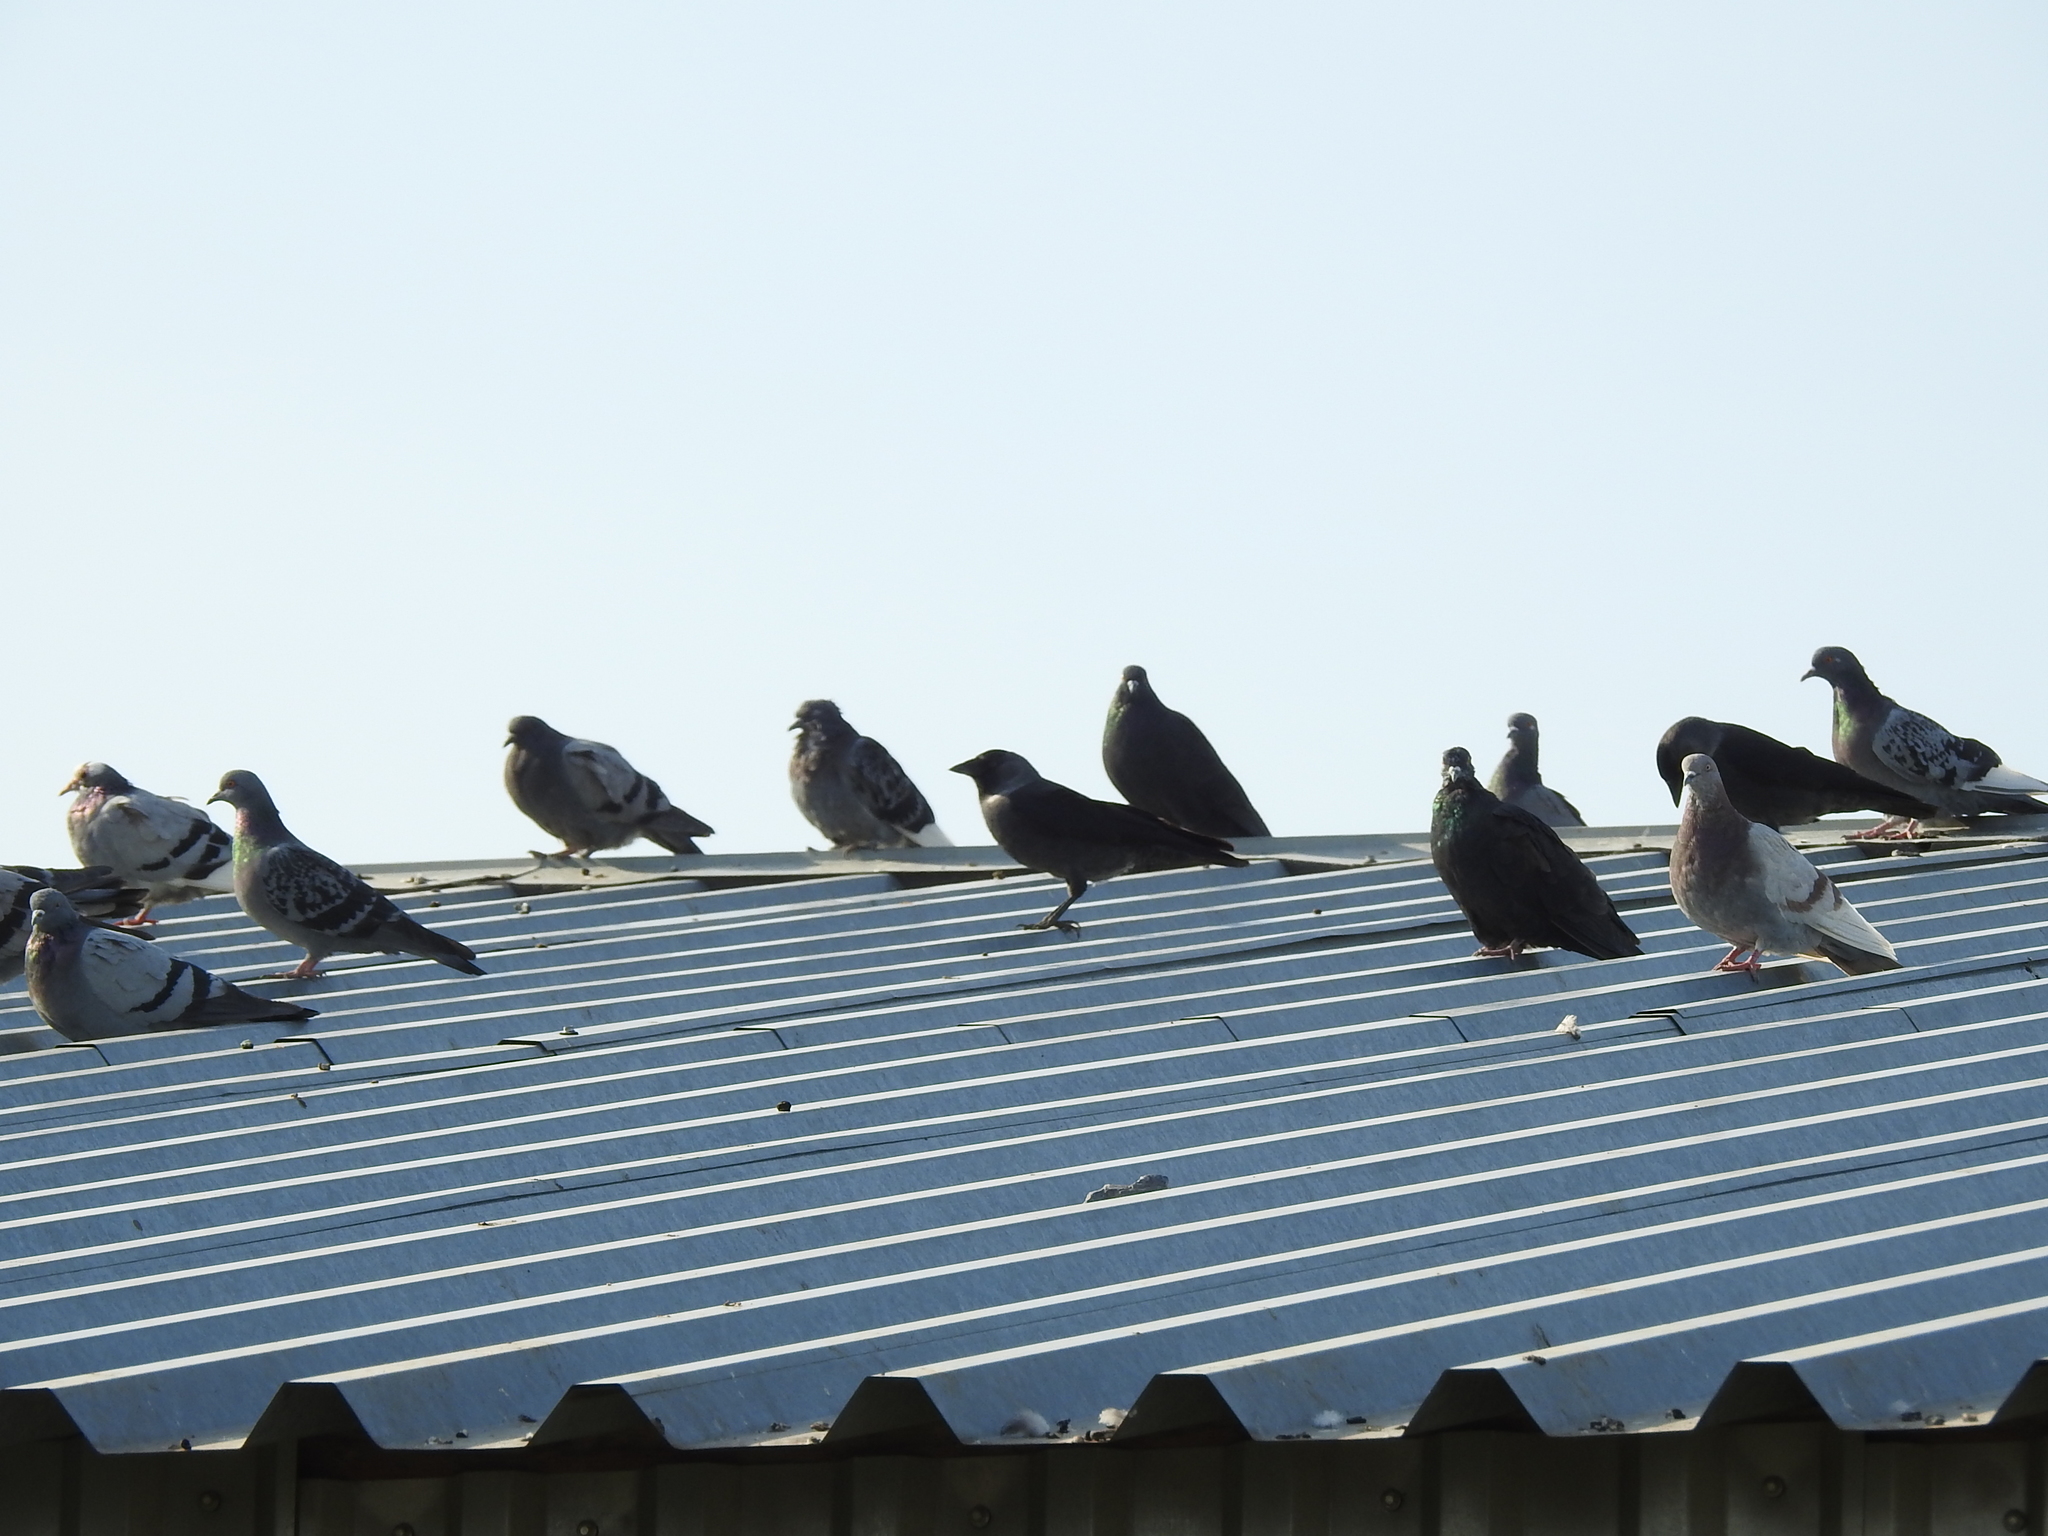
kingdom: Animalia
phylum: Chordata
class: Aves
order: Passeriformes
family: Corvidae
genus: Coloeus
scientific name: Coloeus monedula
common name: Western jackdaw
